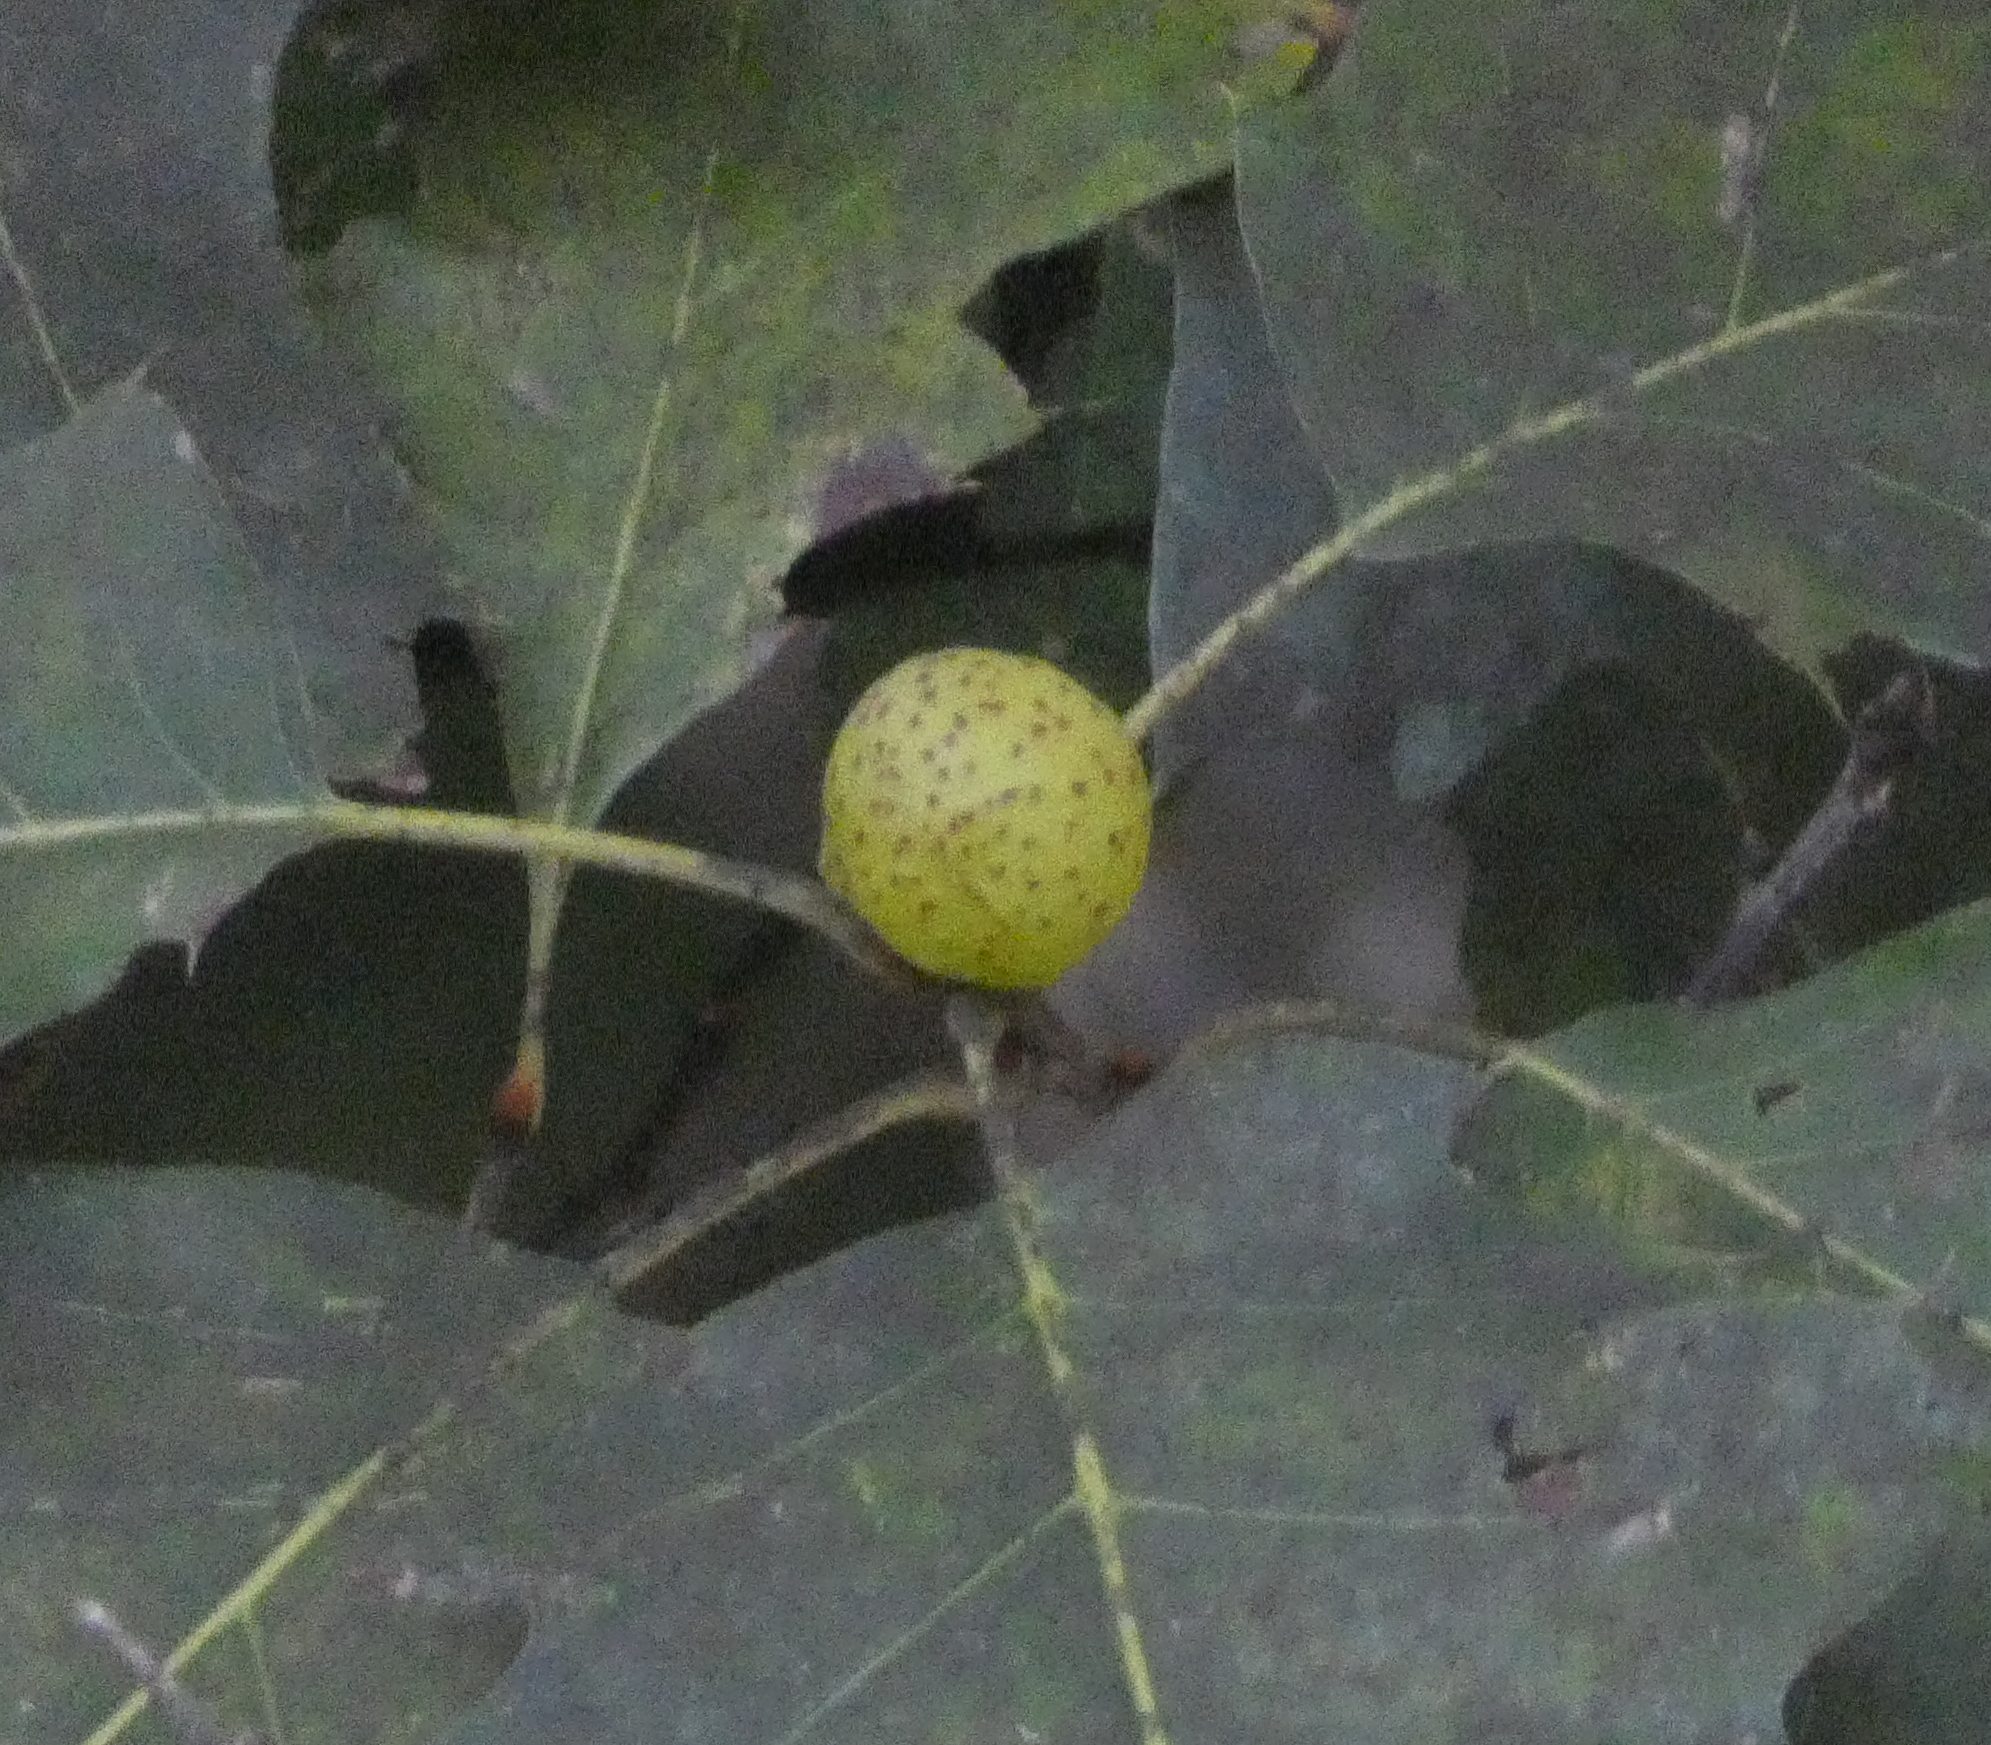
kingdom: Animalia
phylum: Arthropoda
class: Insecta
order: Hymenoptera
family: Cynipidae
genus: Amphibolips
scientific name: Amphibolips
